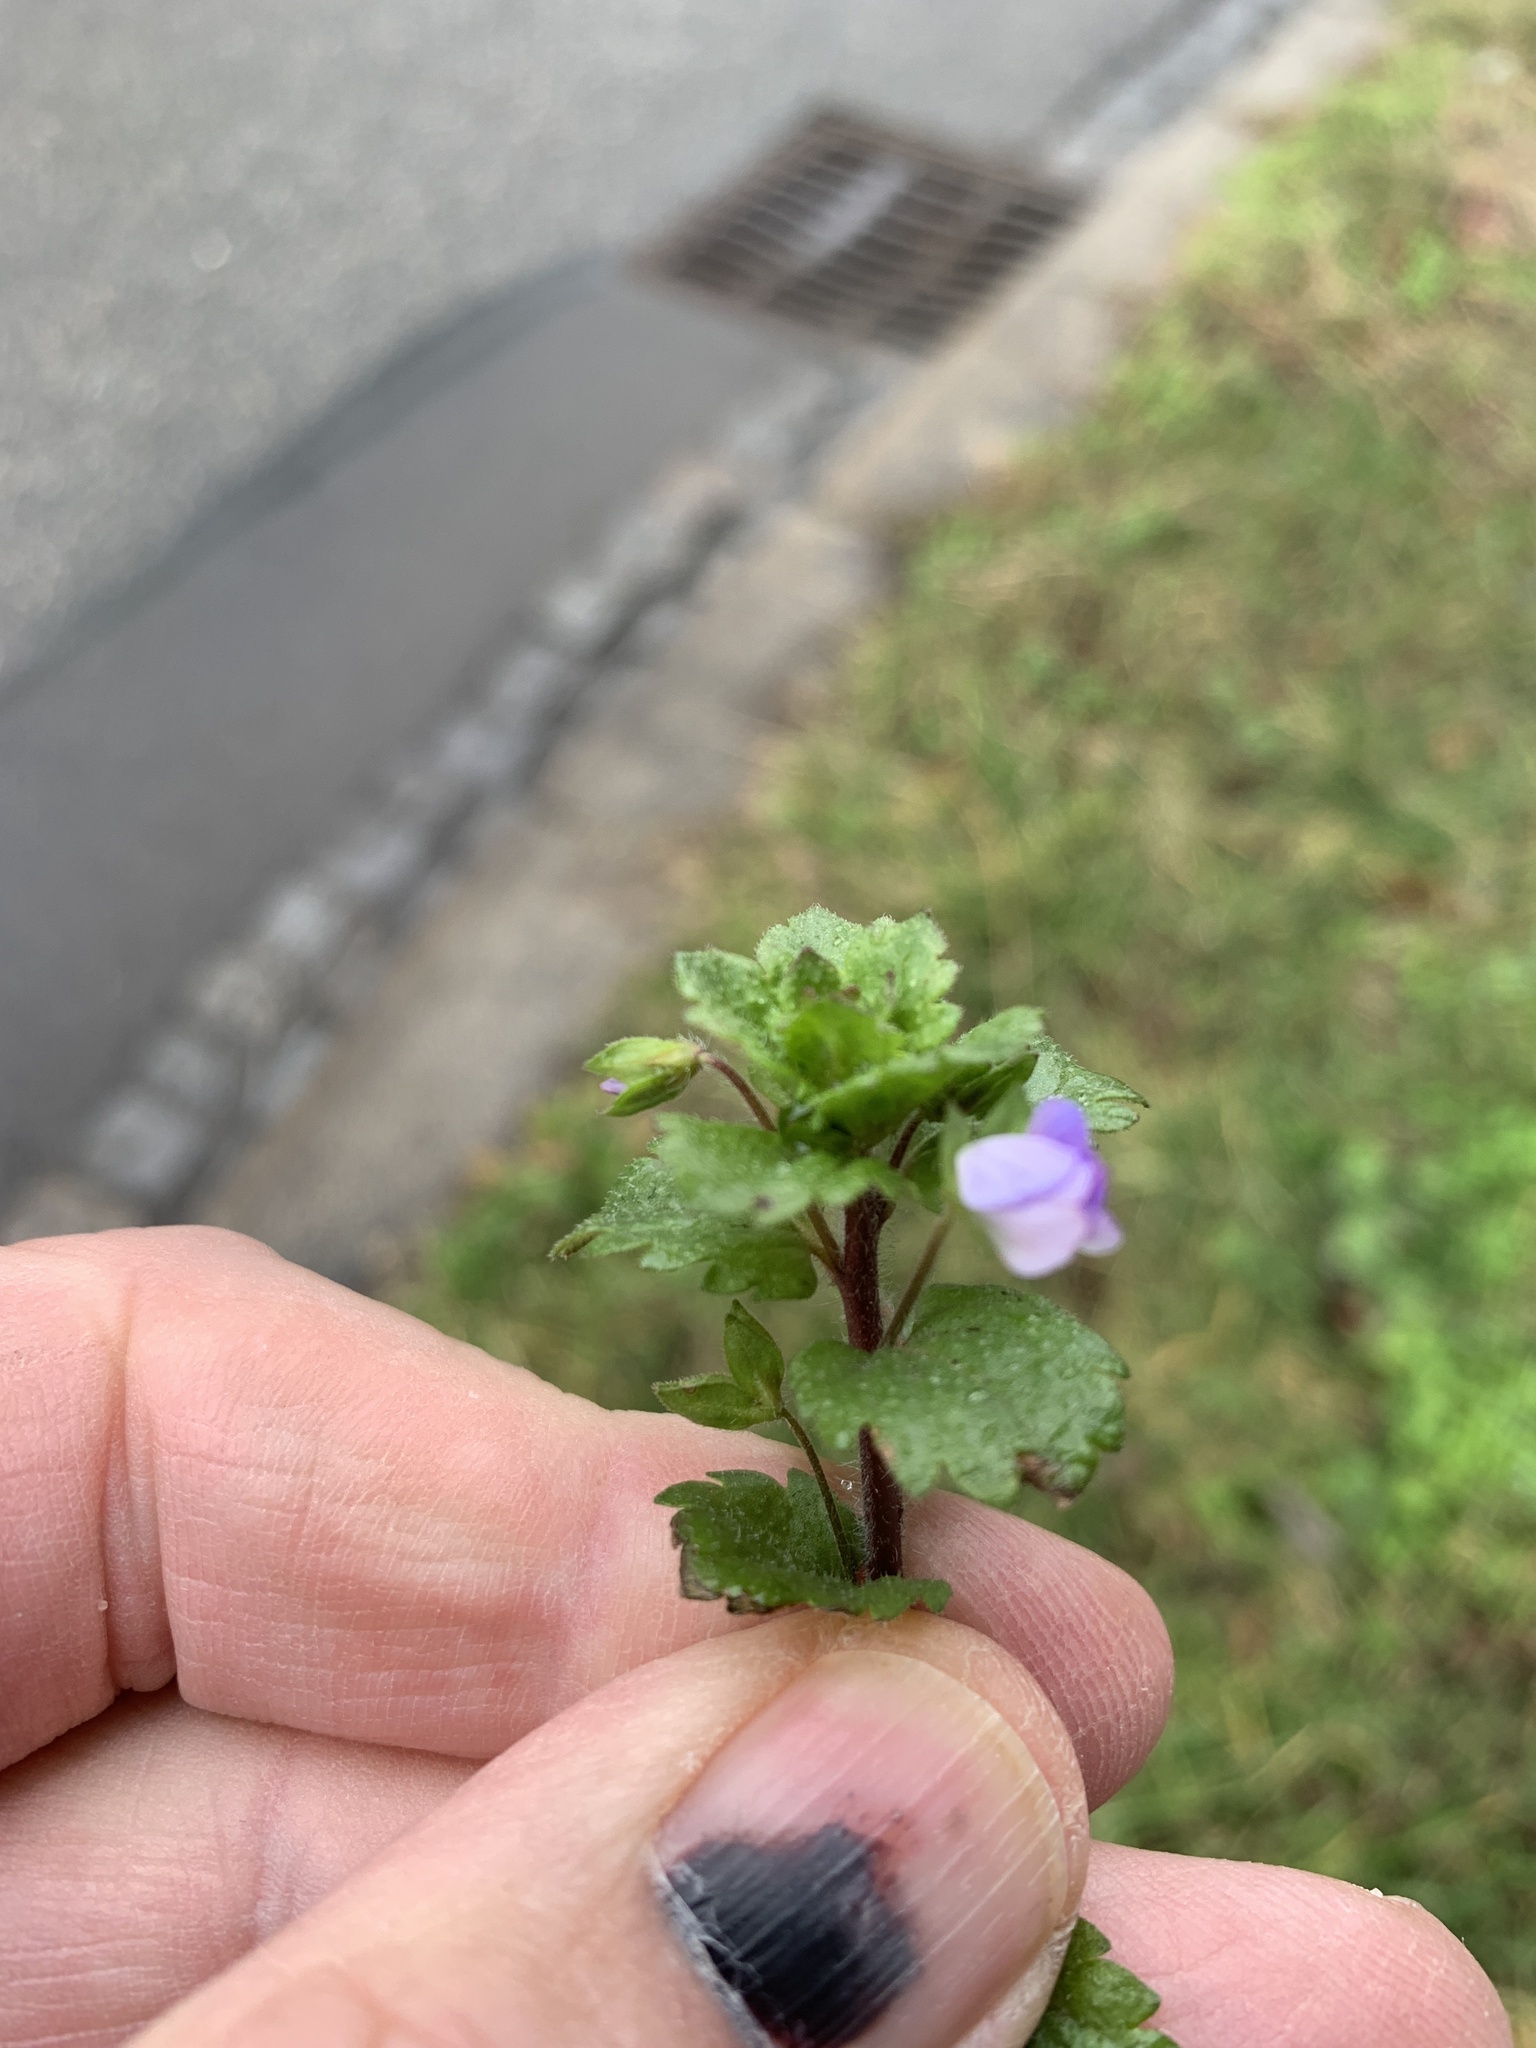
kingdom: Plantae
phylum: Tracheophyta
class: Magnoliopsida
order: Lamiales
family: Plantaginaceae
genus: Veronica
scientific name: Veronica persica
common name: Common field-speedwell
